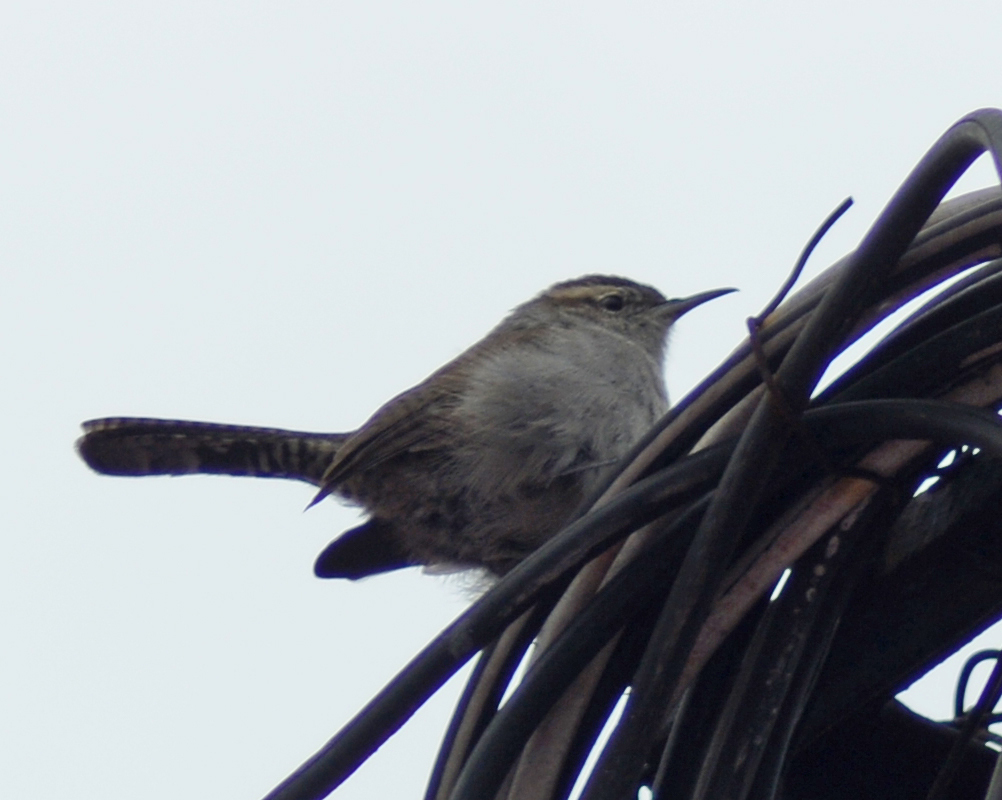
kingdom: Animalia
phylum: Chordata
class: Aves
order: Passeriformes
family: Troglodytidae
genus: Thryomanes
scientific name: Thryomanes bewickii
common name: Bewick's wren
